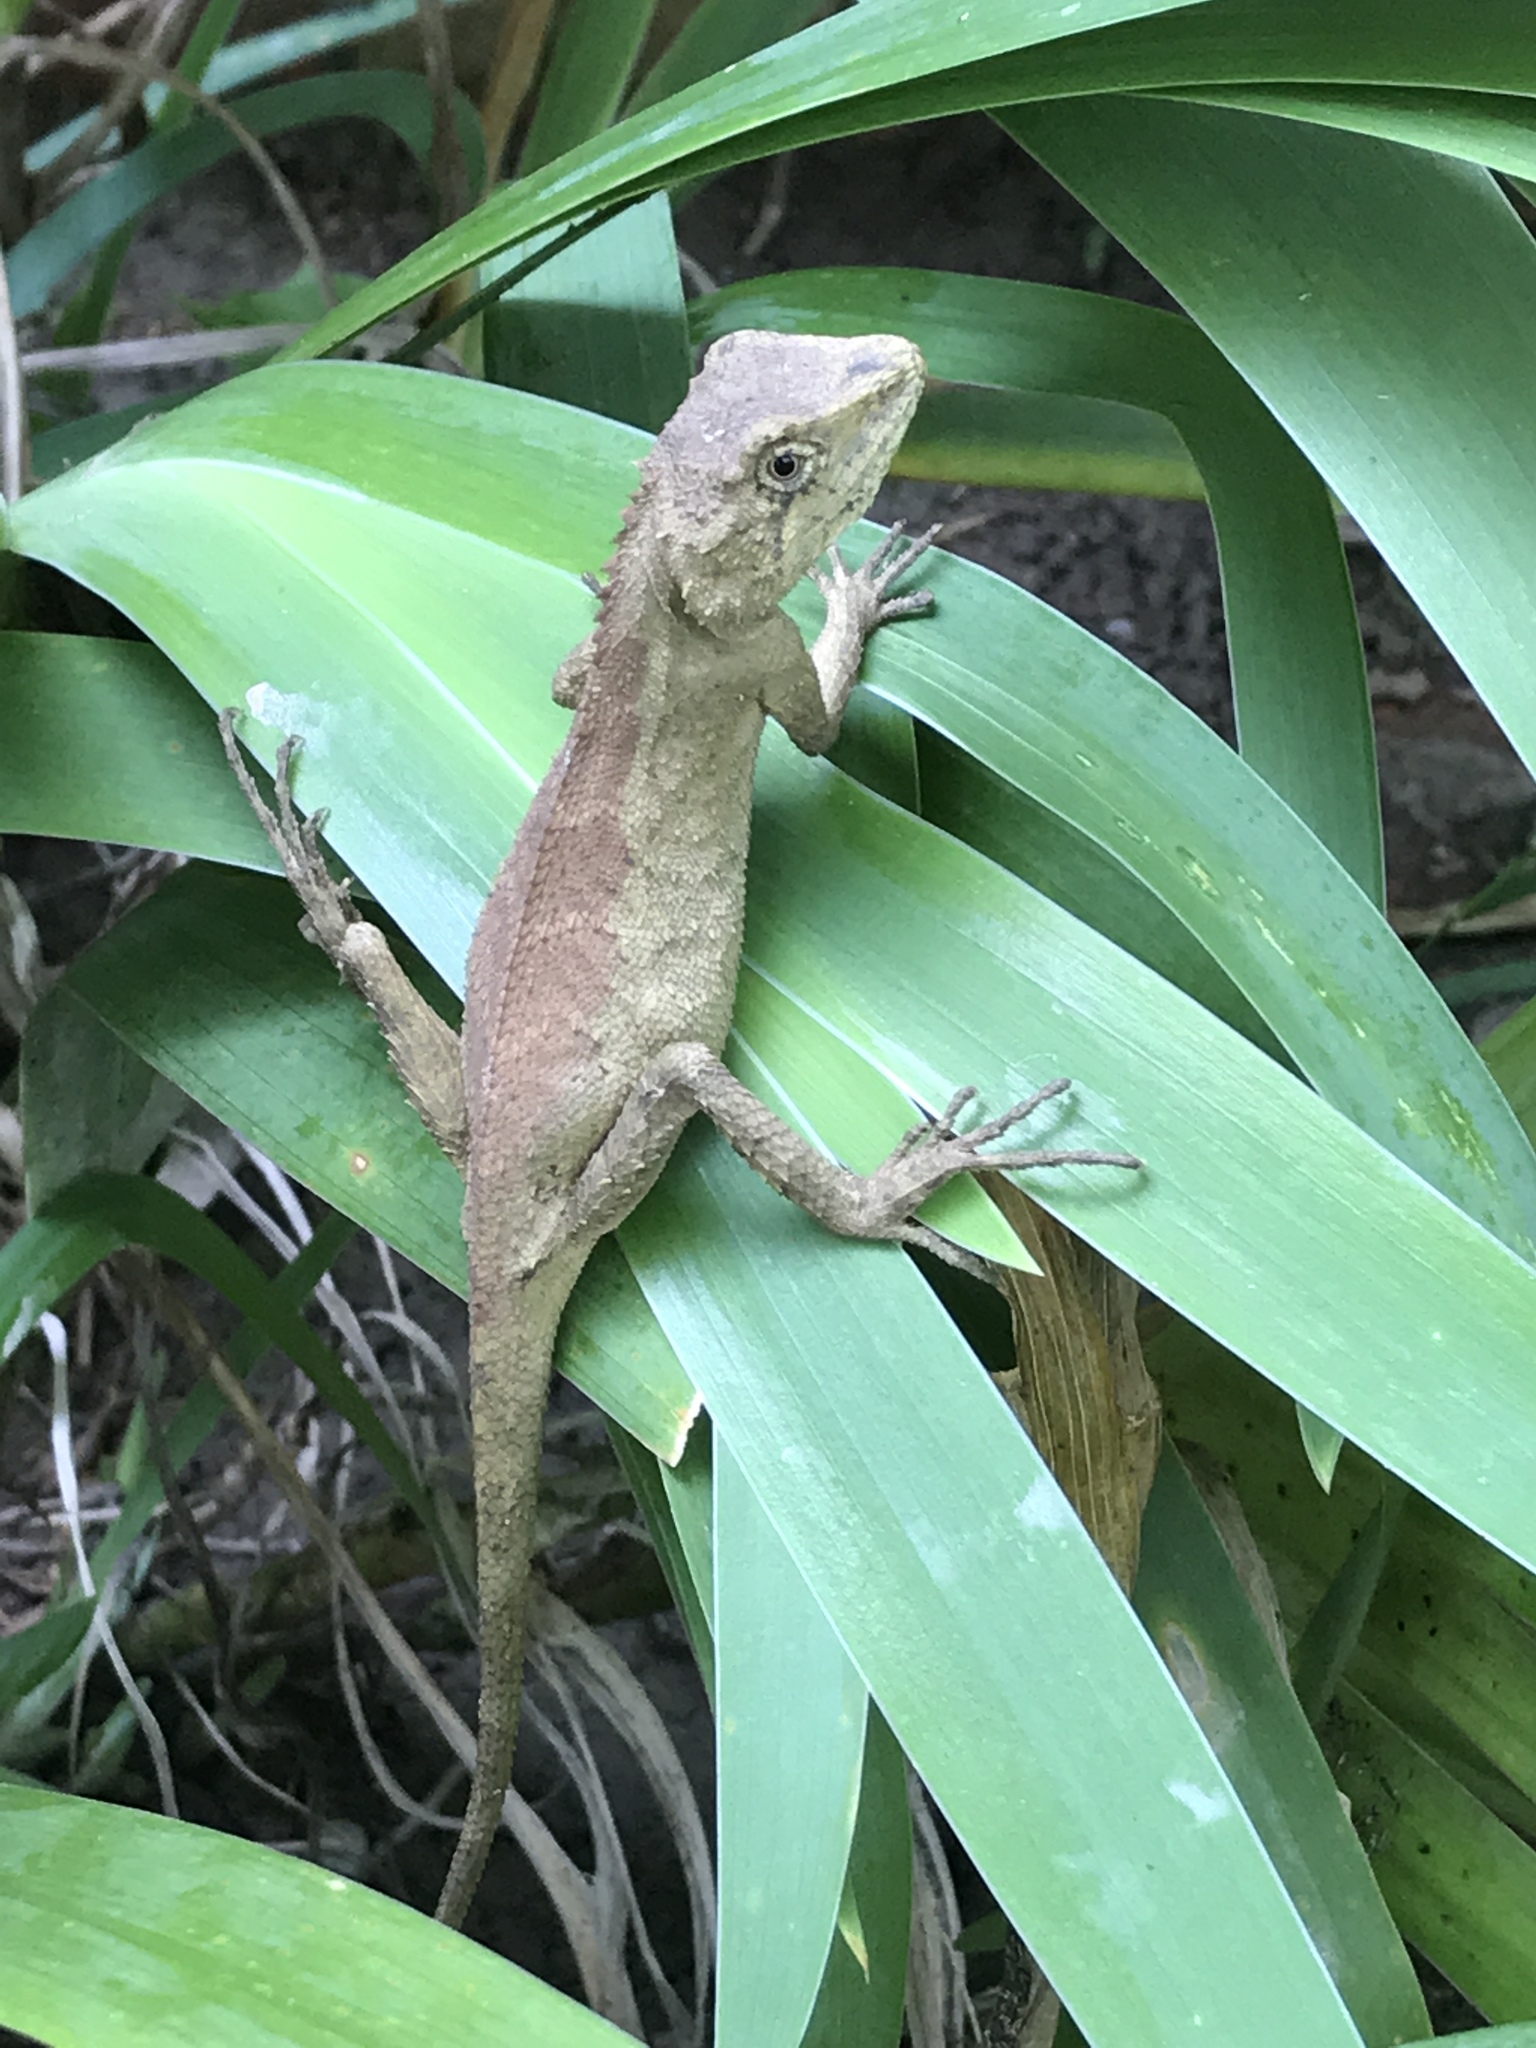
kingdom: Animalia
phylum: Chordata
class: Squamata
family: Agamidae
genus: Diploderma
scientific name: Diploderma swinhonis
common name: Taiwan japalure
